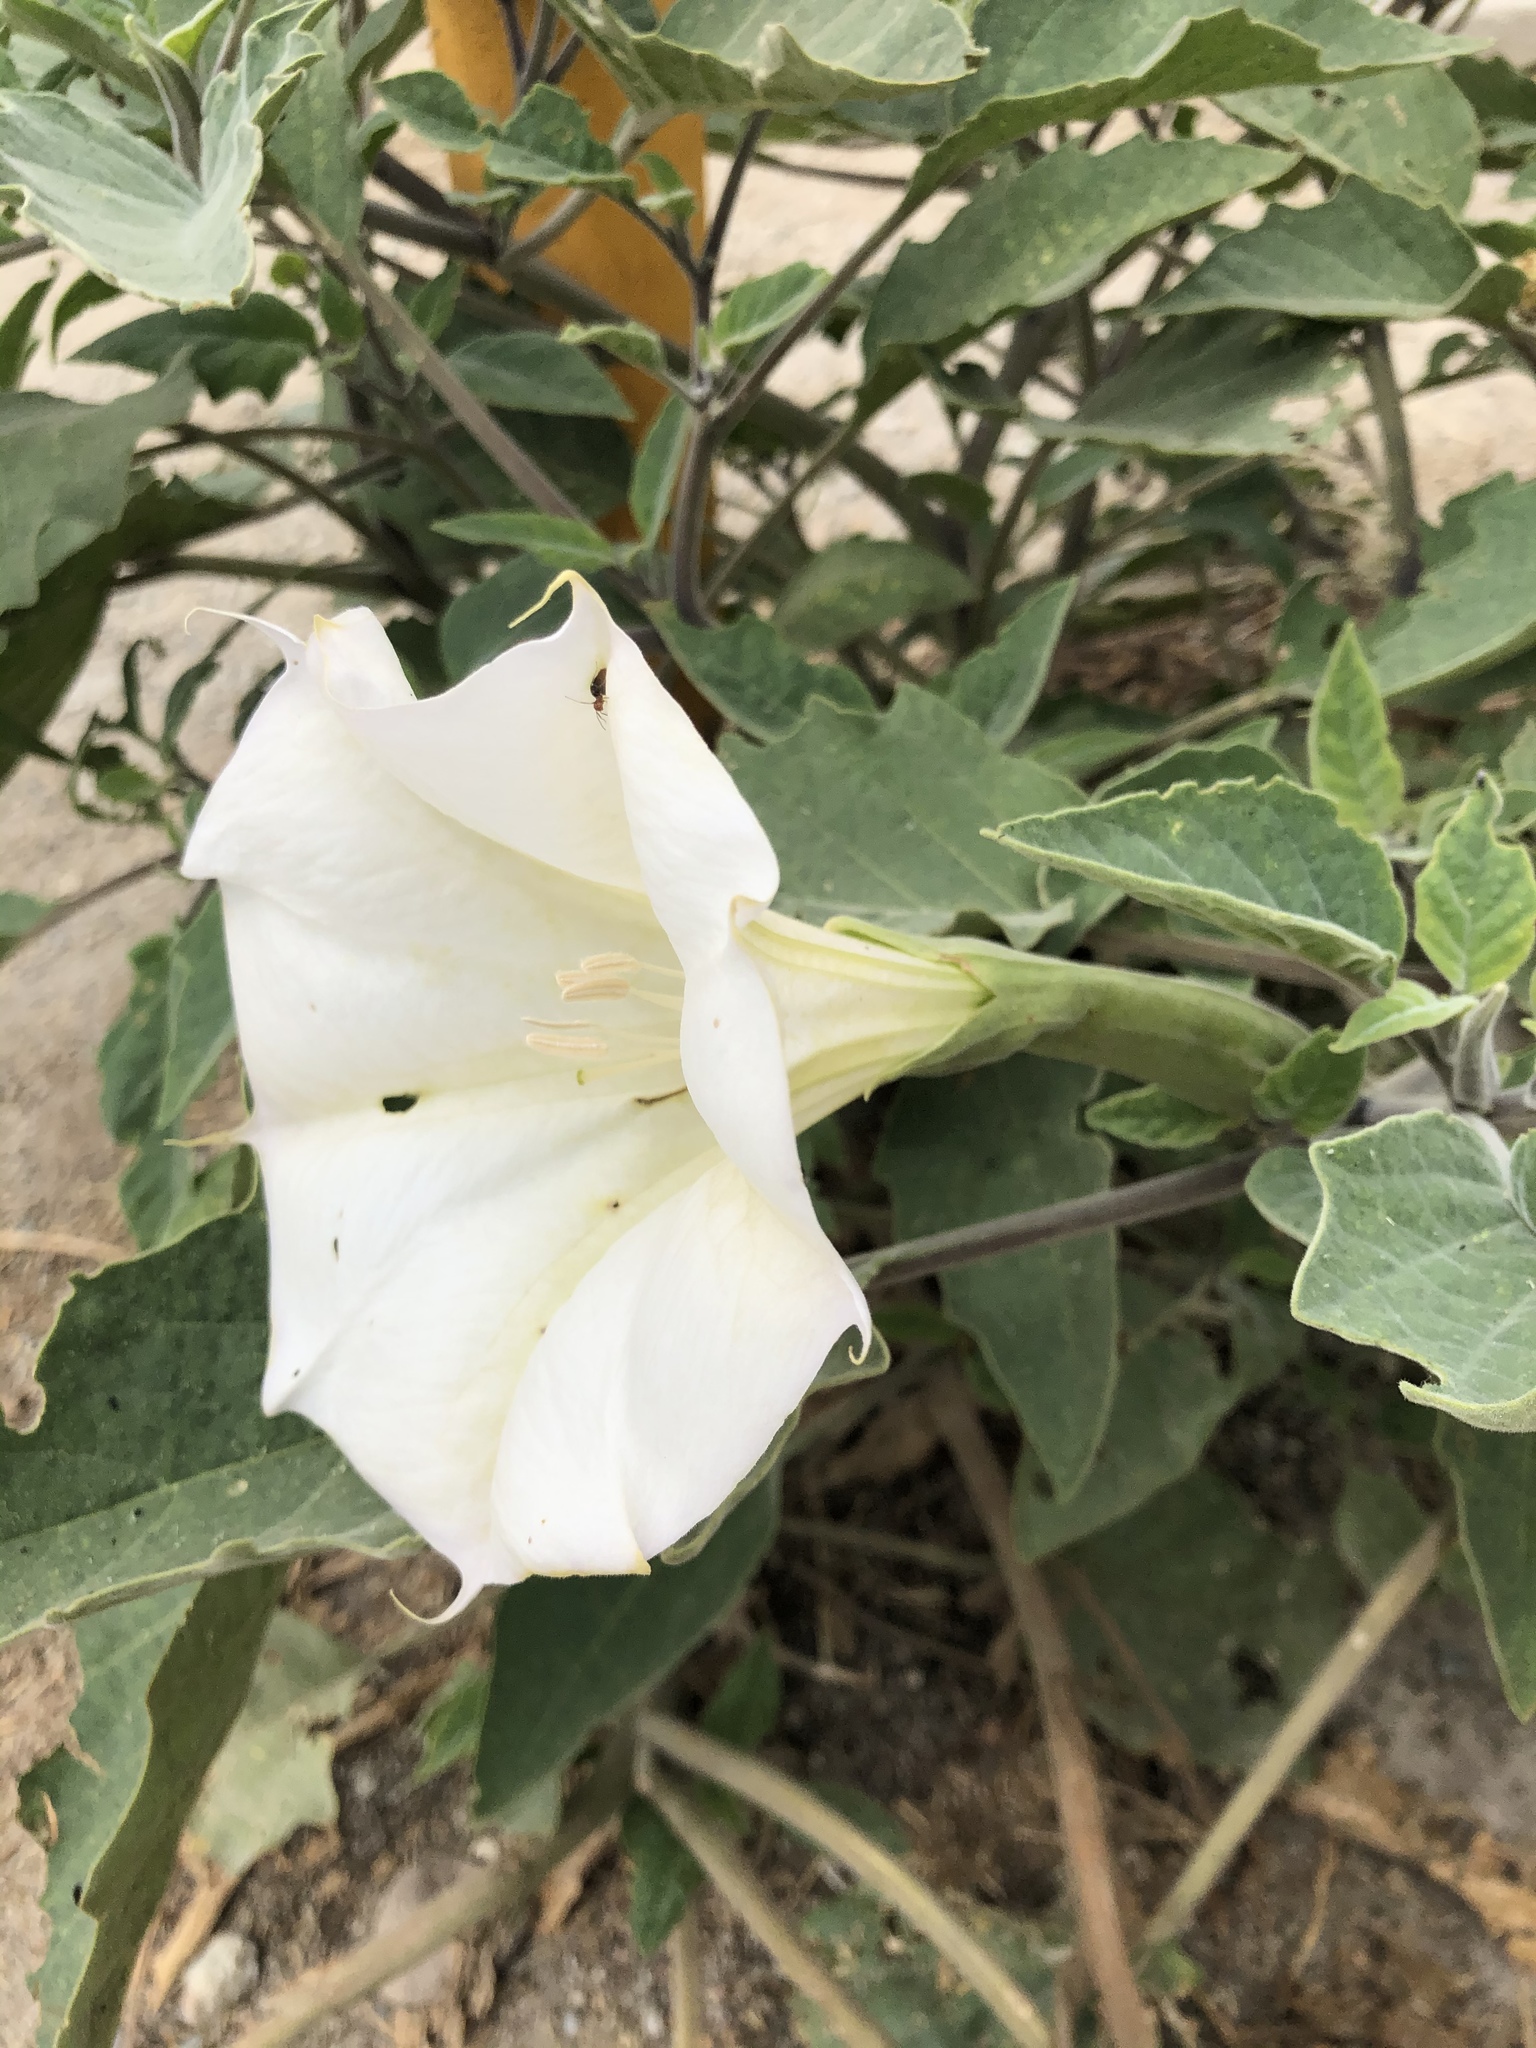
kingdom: Plantae
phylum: Tracheophyta
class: Magnoliopsida
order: Solanales
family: Solanaceae
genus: Datura
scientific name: Datura wrightii
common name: Sacred thorn-apple
